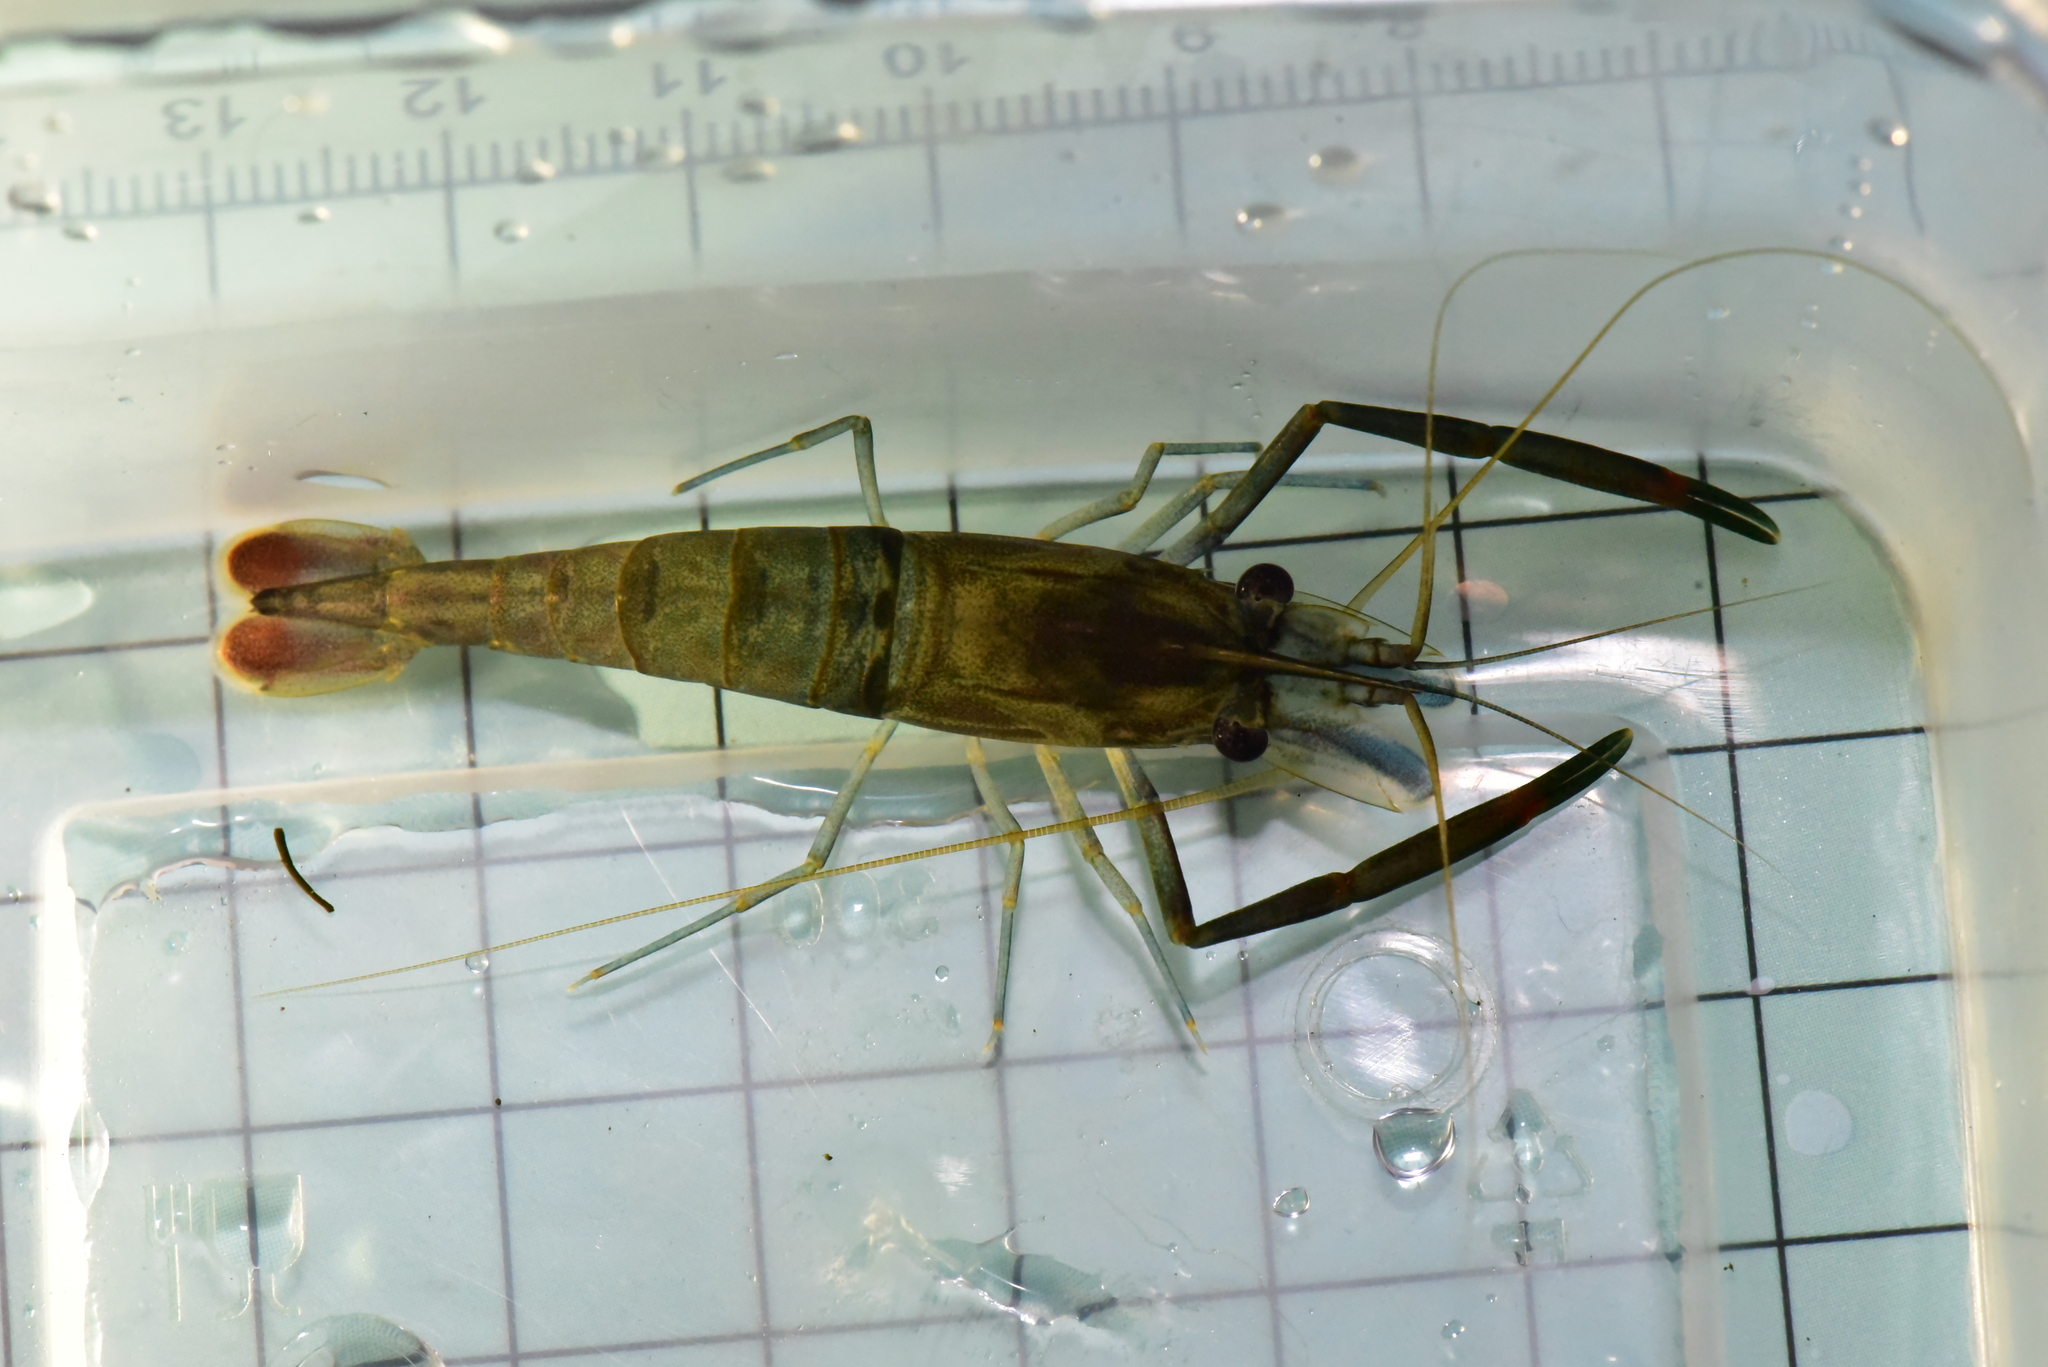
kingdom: Animalia
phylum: Arthropoda
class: Malacostraca
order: Decapoda
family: Palaemonidae
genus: Macrobrachium
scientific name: Macrobrachium asperulum
